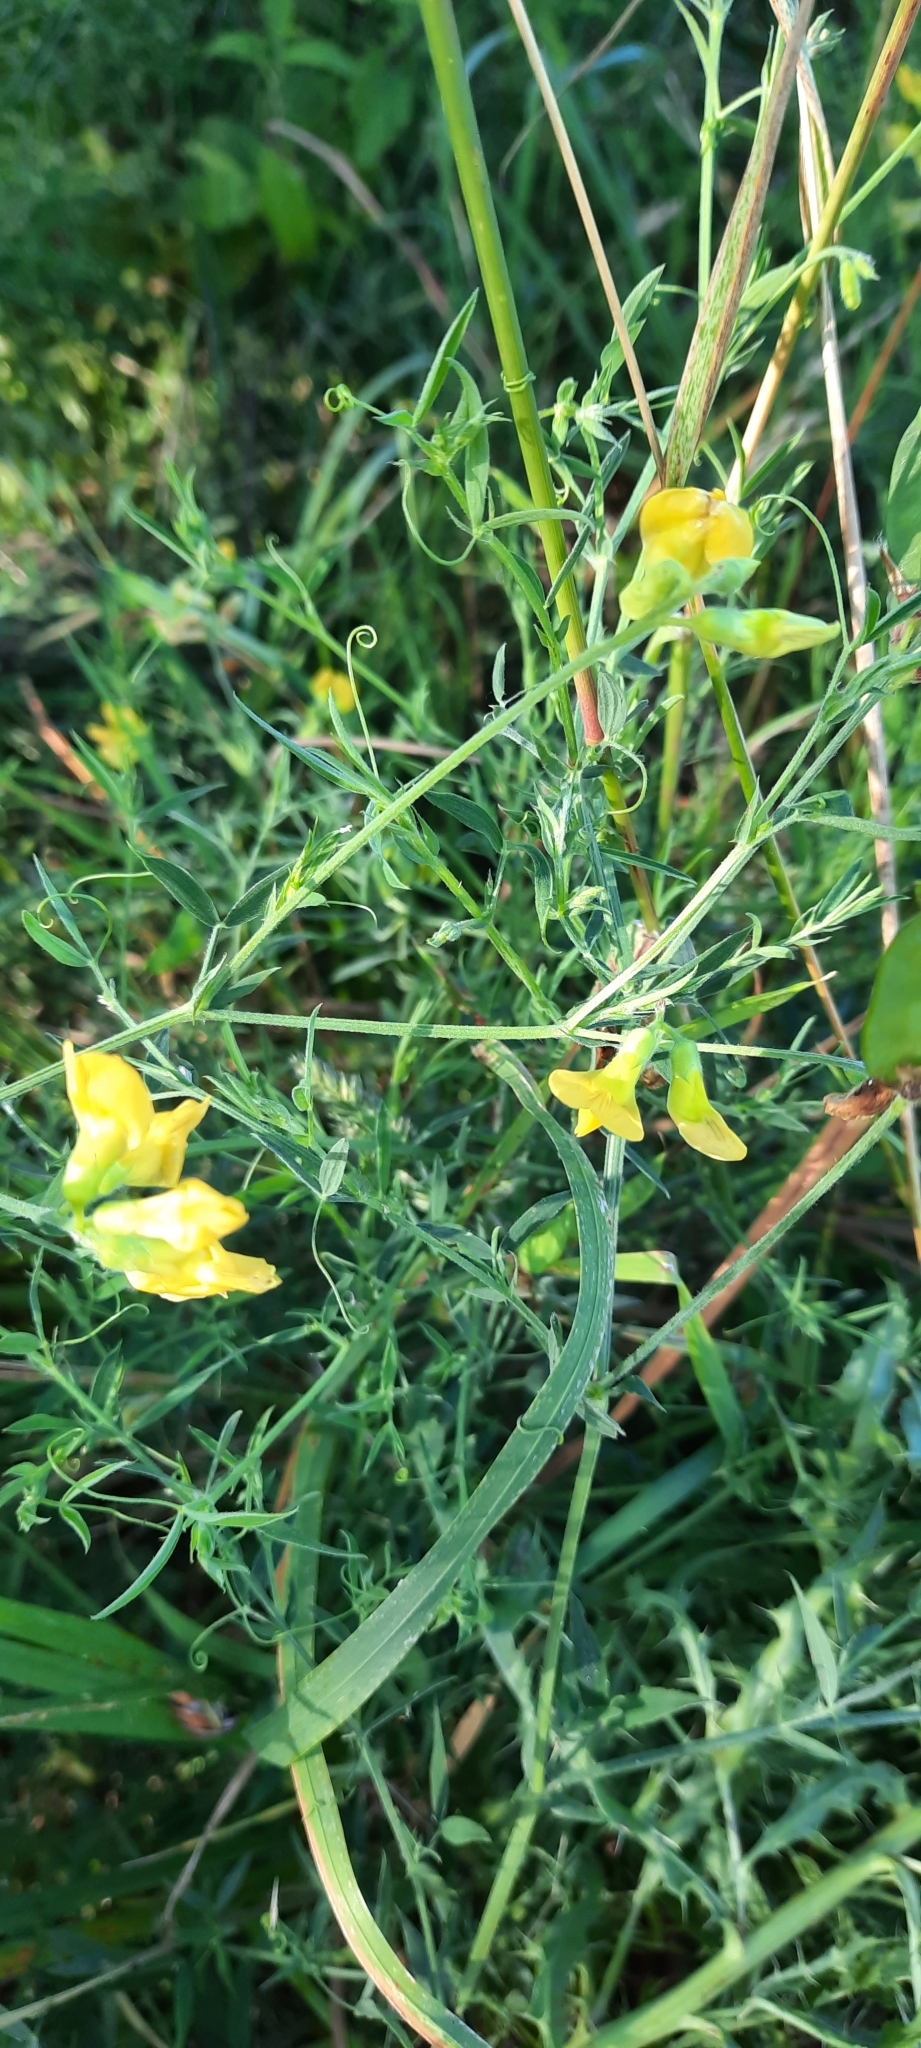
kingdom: Plantae
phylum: Tracheophyta
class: Magnoliopsida
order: Fabales
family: Fabaceae
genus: Lathyrus
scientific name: Lathyrus pratensis
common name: Meadow vetchling
